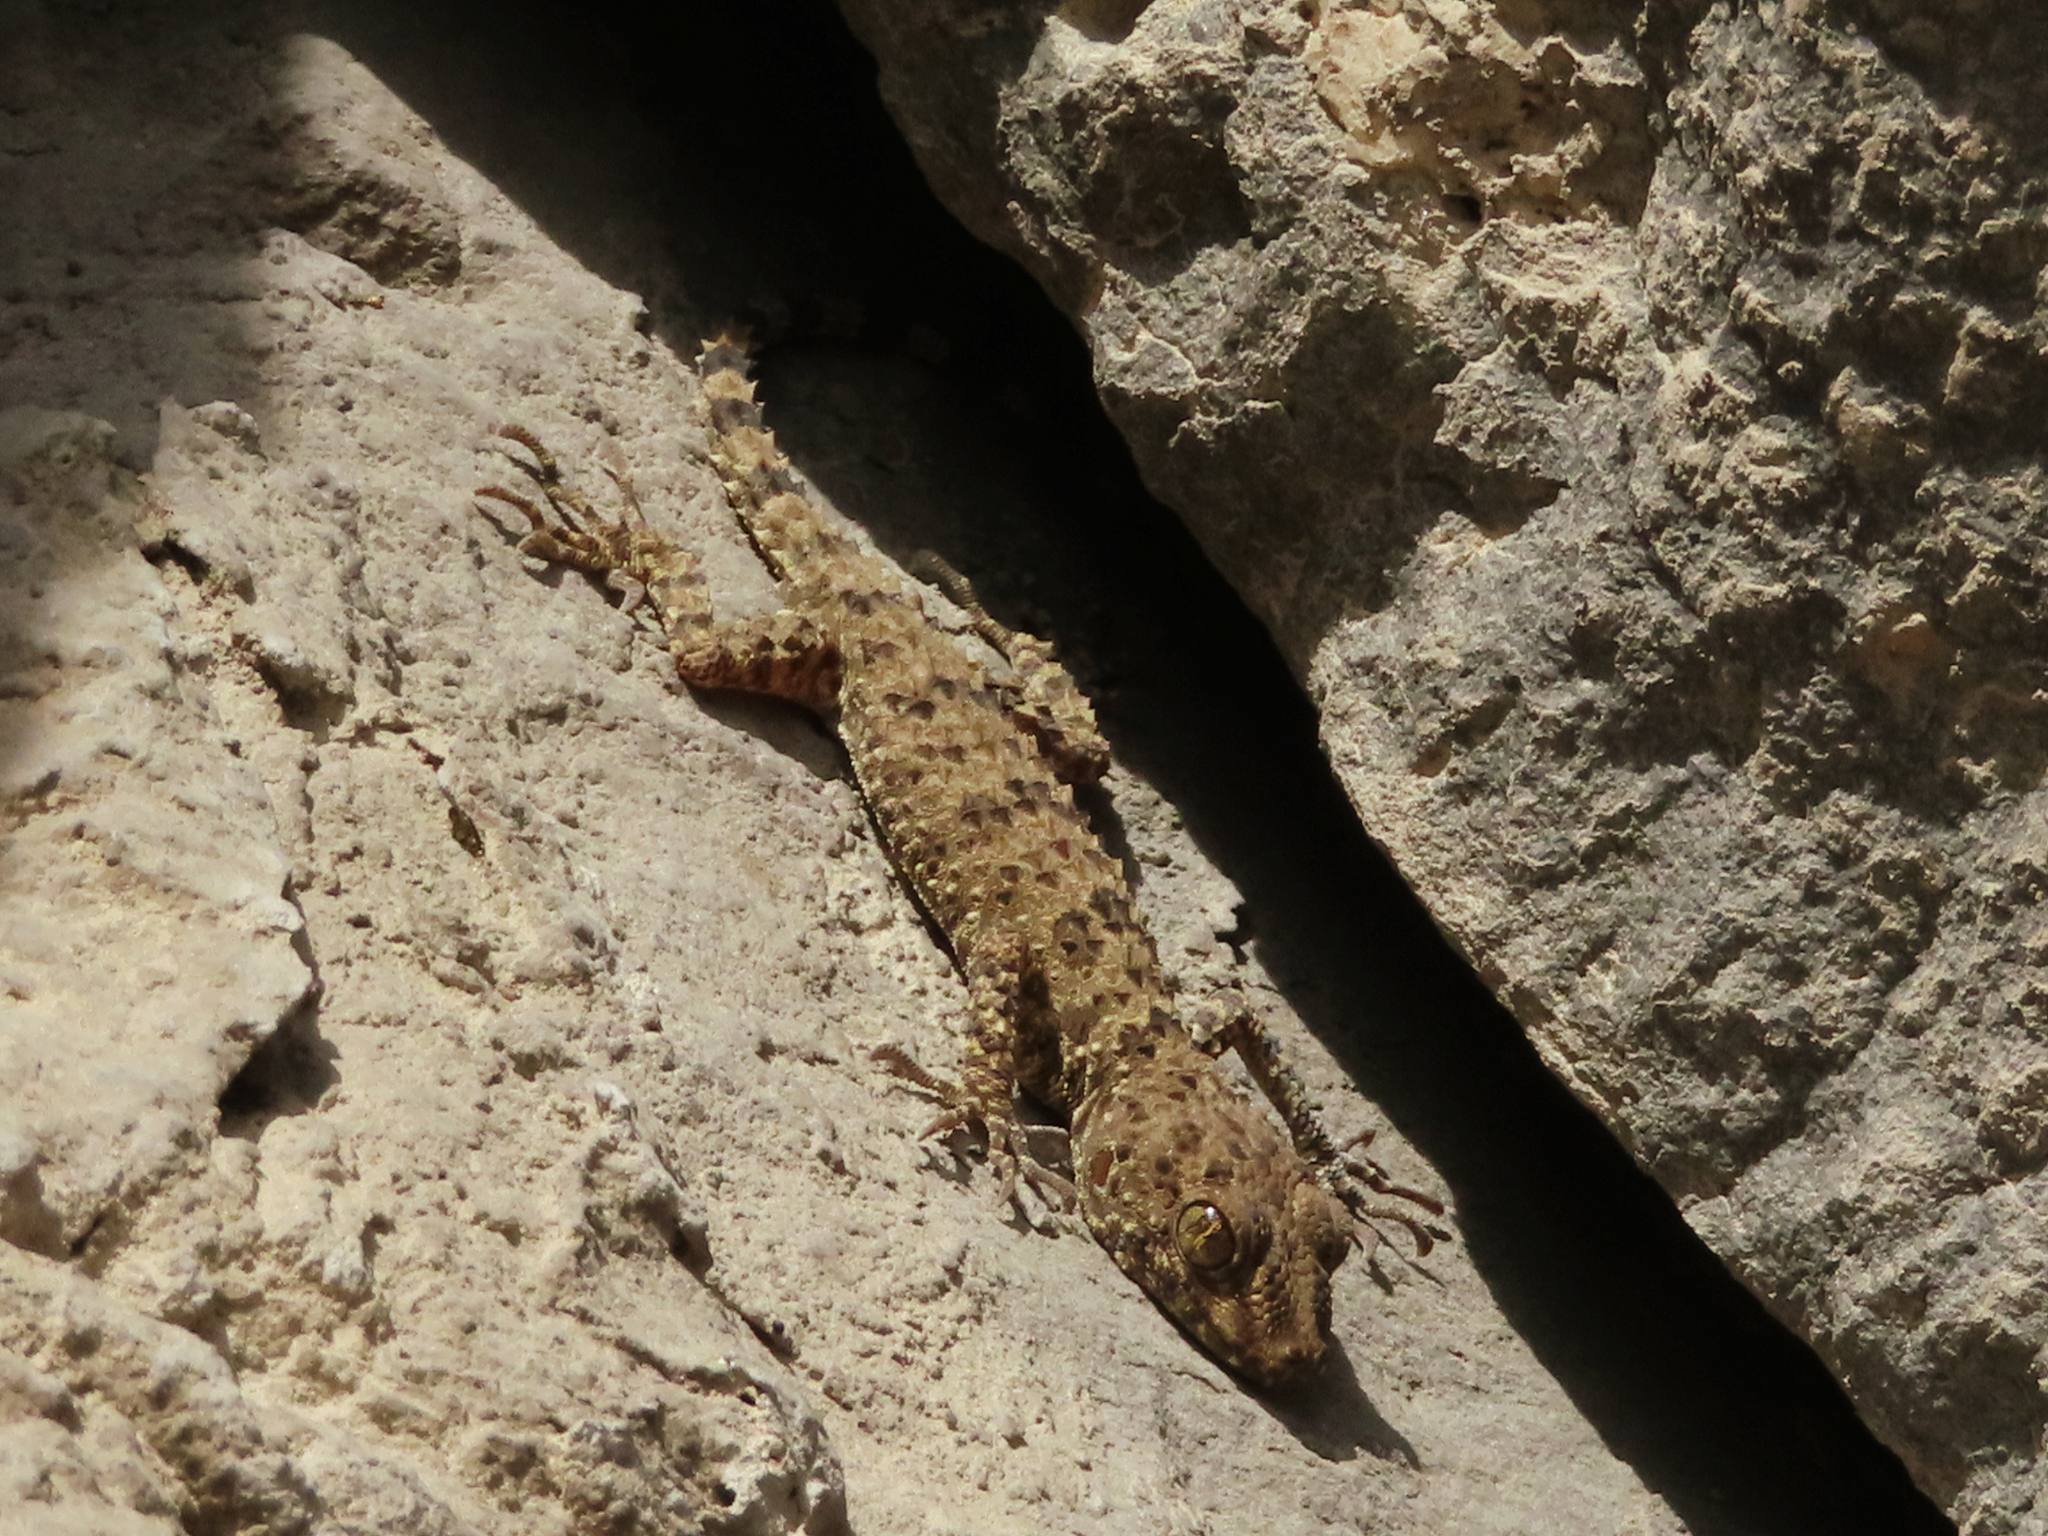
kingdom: Animalia
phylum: Chordata
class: Squamata
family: Gekkonidae
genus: Tenuidactylus
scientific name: Tenuidactylus caspius
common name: Caspian bent-toed gecko
